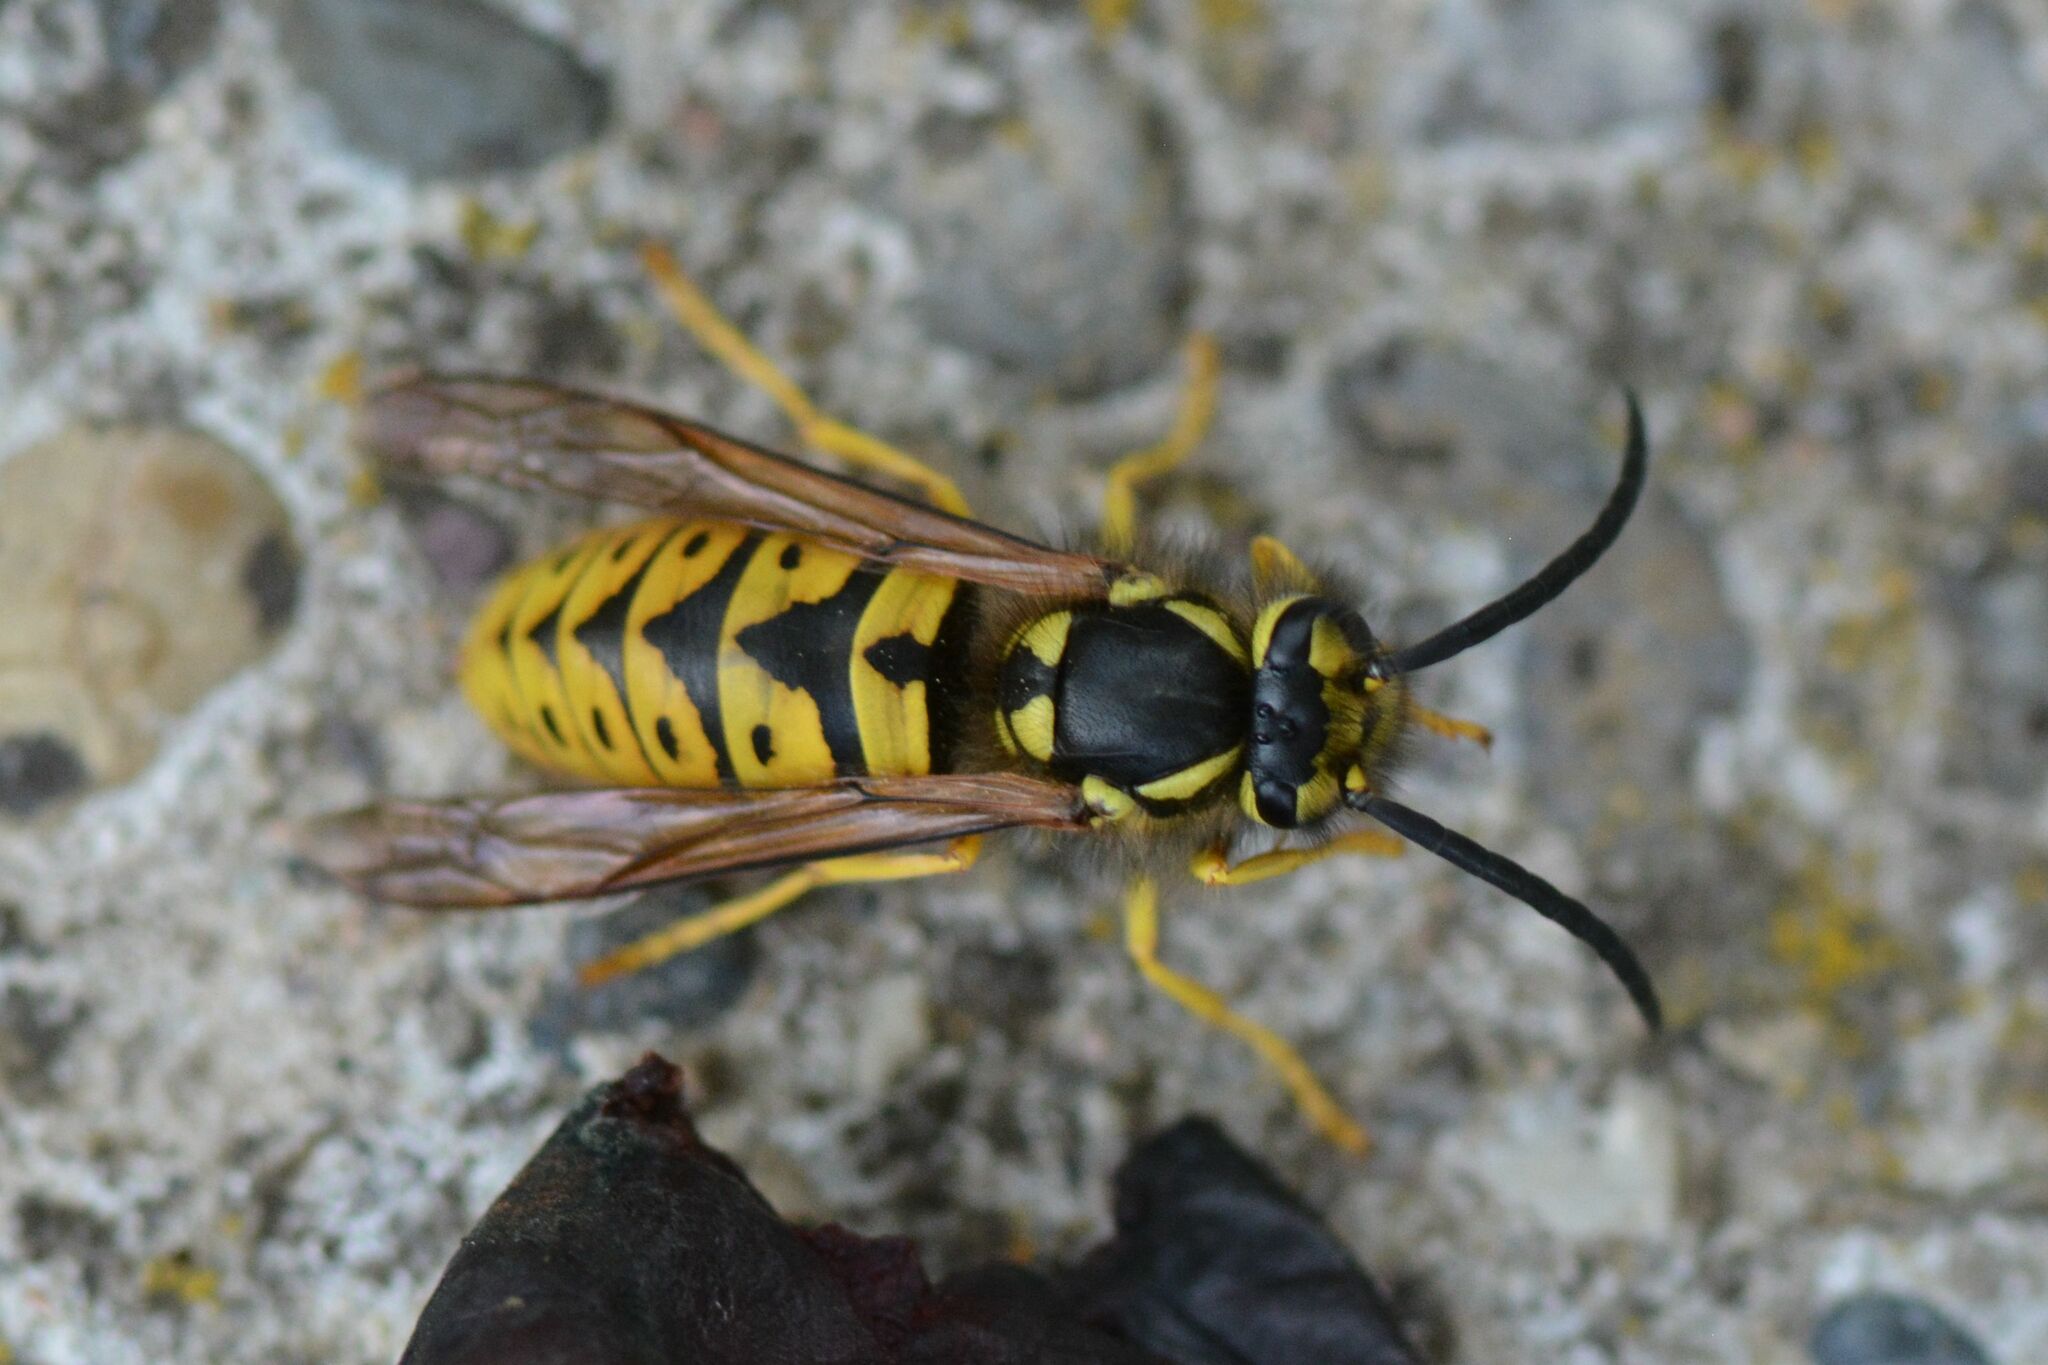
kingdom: Animalia
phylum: Arthropoda
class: Insecta
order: Hymenoptera
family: Vespidae
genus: Vespula
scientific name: Vespula germanica
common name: German wasp
